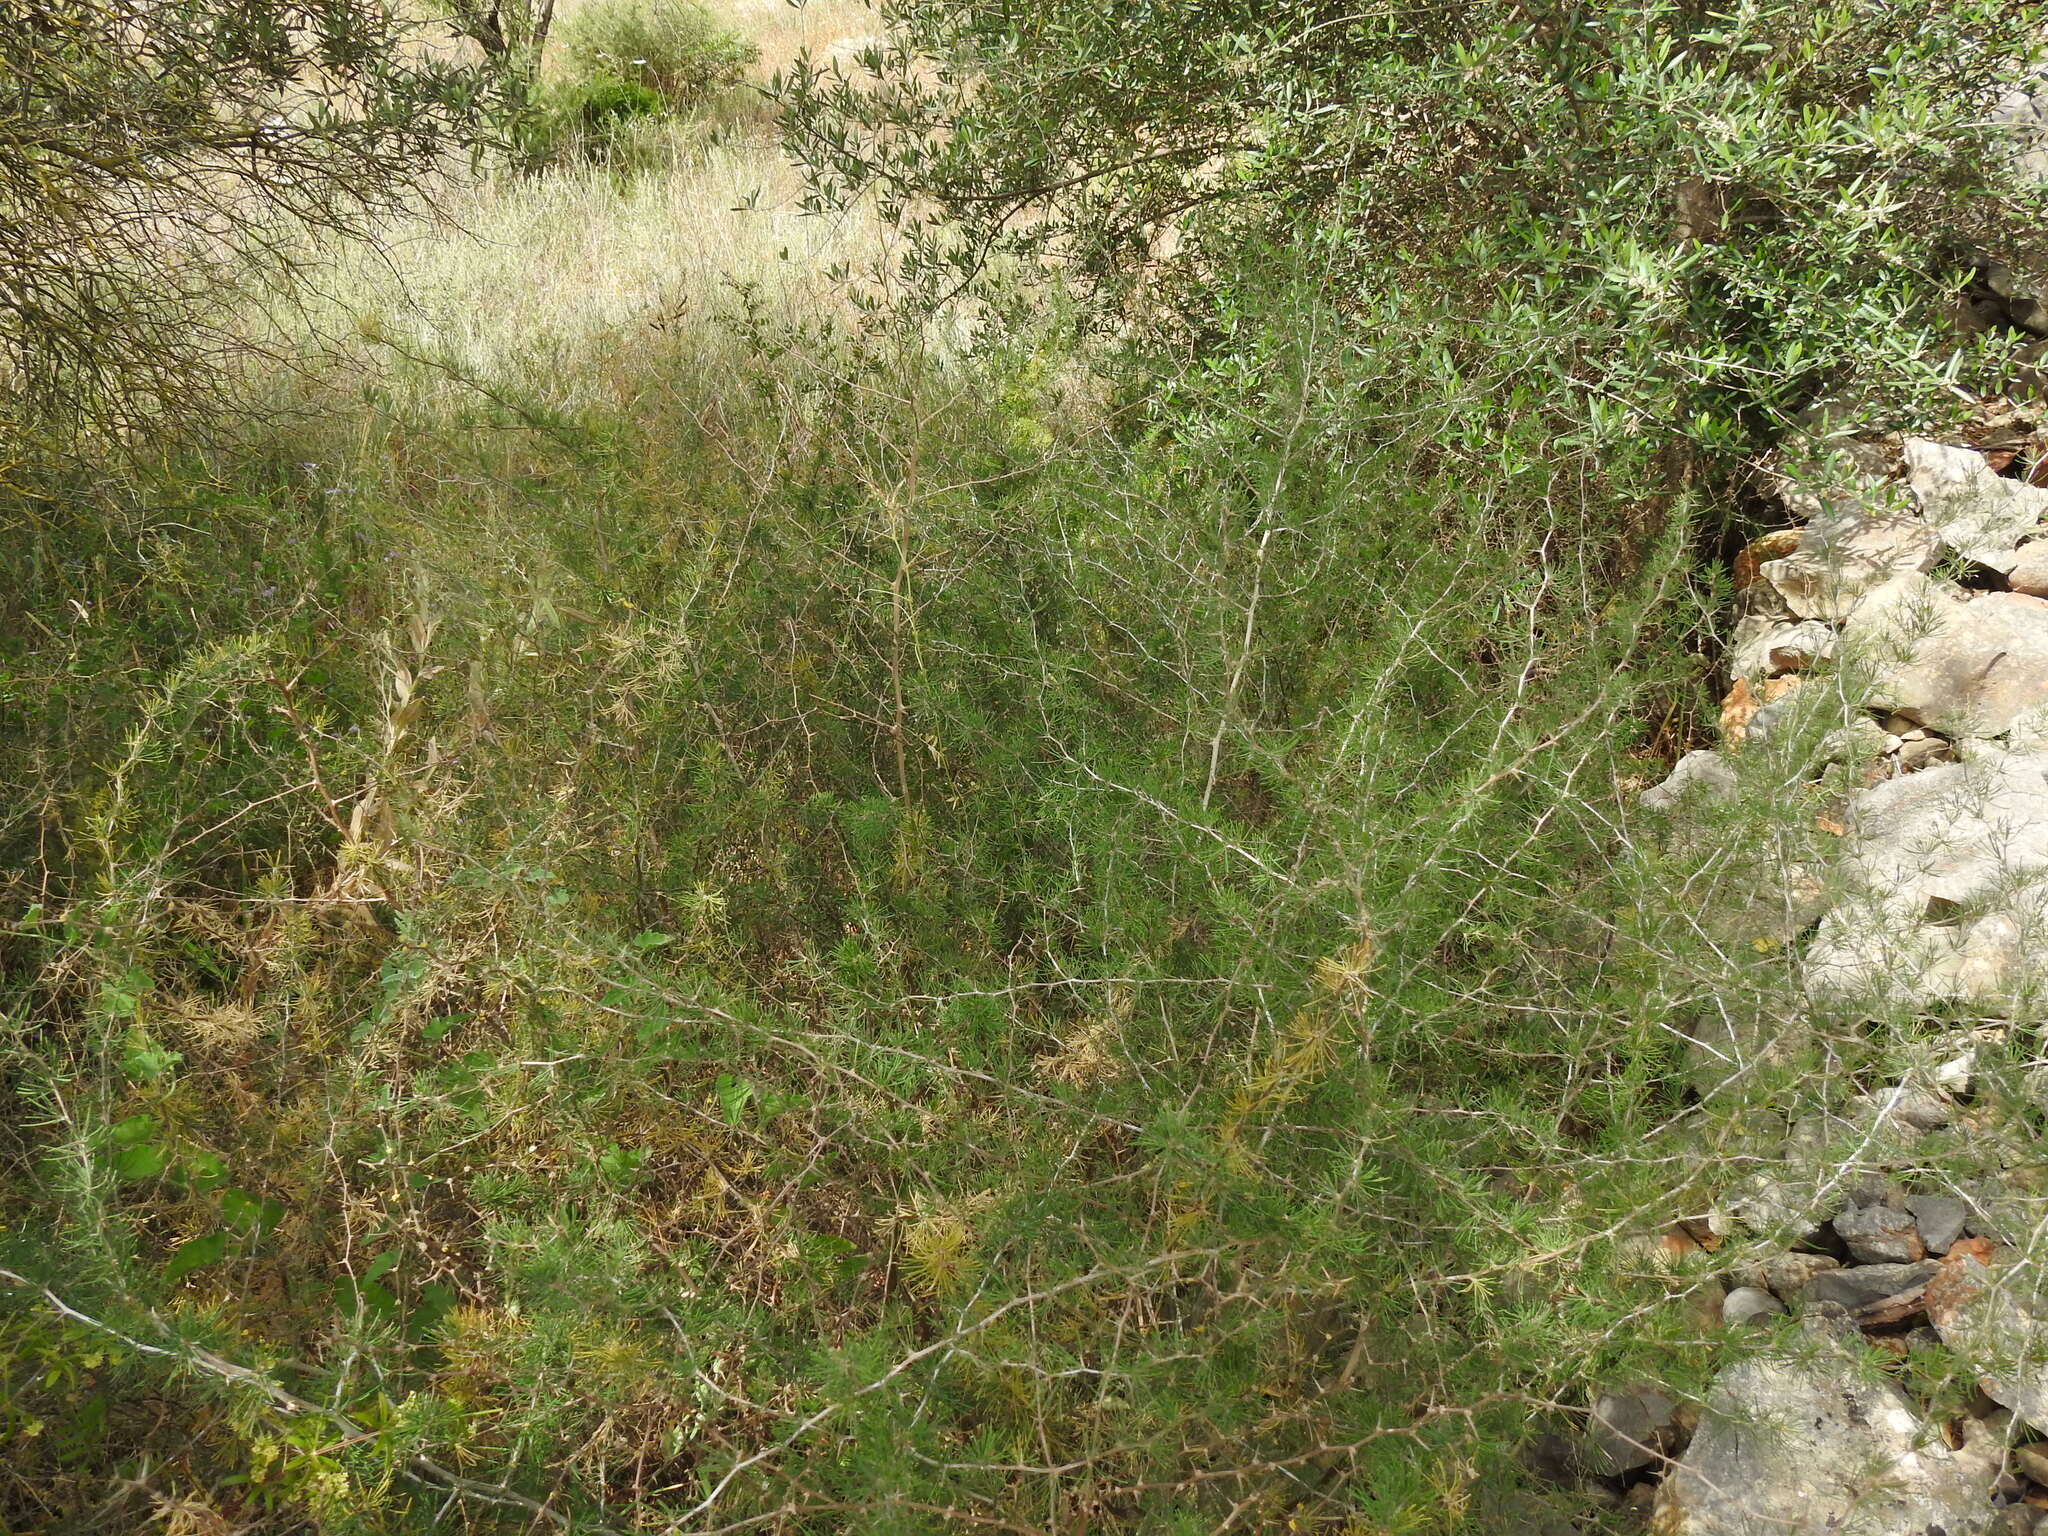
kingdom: Plantae
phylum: Tracheophyta
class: Liliopsida
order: Asparagales
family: Asparagaceae
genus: Asparagus
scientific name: Asparagus albus
